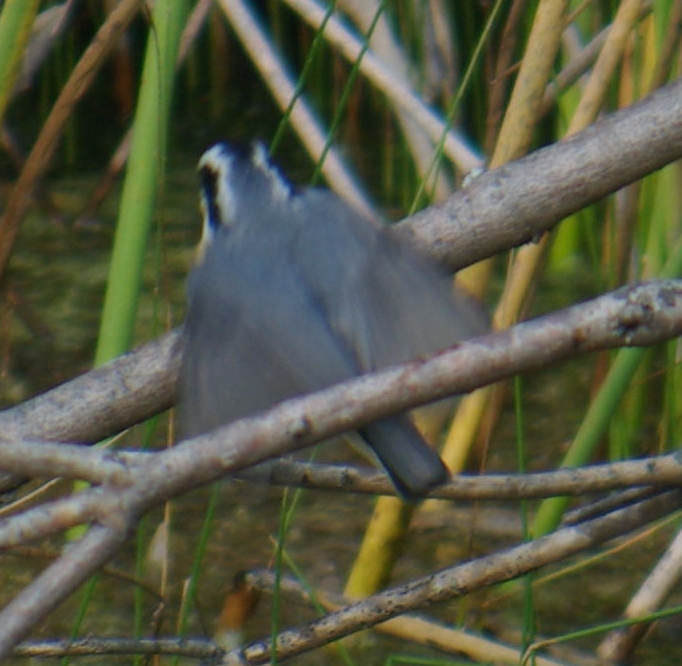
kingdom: Animalia
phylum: Chordata
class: Aves
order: Passeriformes
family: Sittidae
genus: Sitta
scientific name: Sitta canadensis
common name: Red-breasted nuthatch
